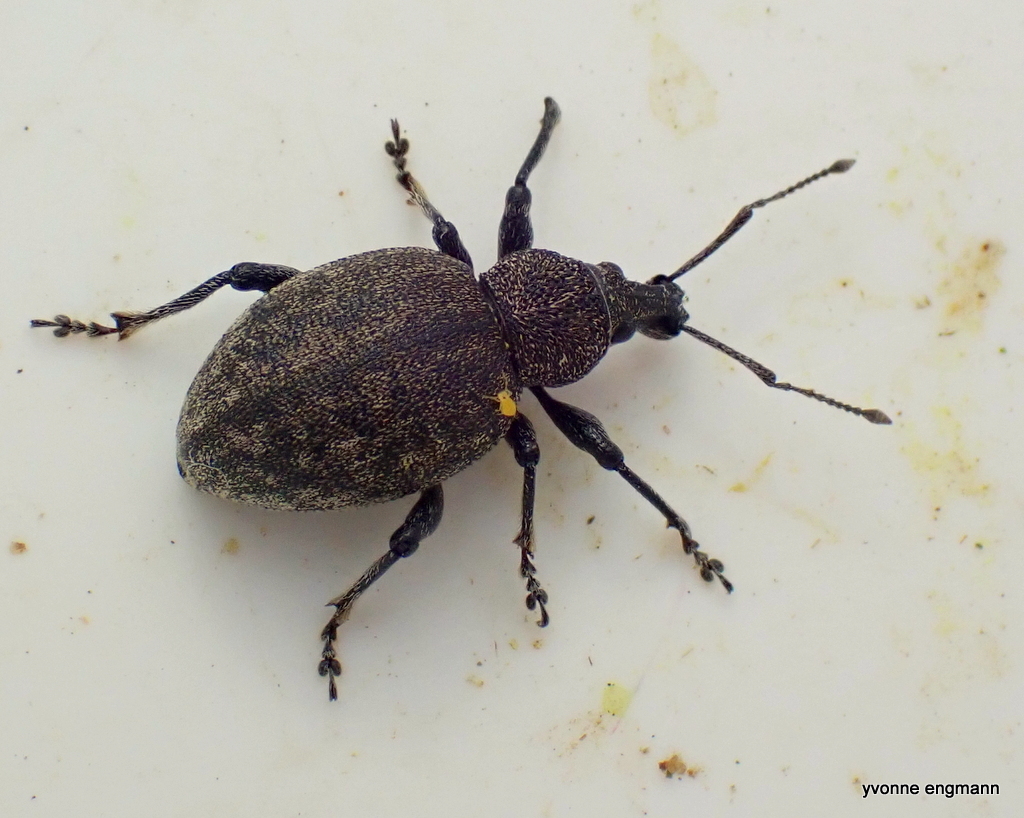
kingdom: Animalia
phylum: Arthropoda
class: Insecta
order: Coleoptera
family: Curculionidae
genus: Otiorhynchus
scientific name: Otiorhynchus ligustici
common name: Weevil
